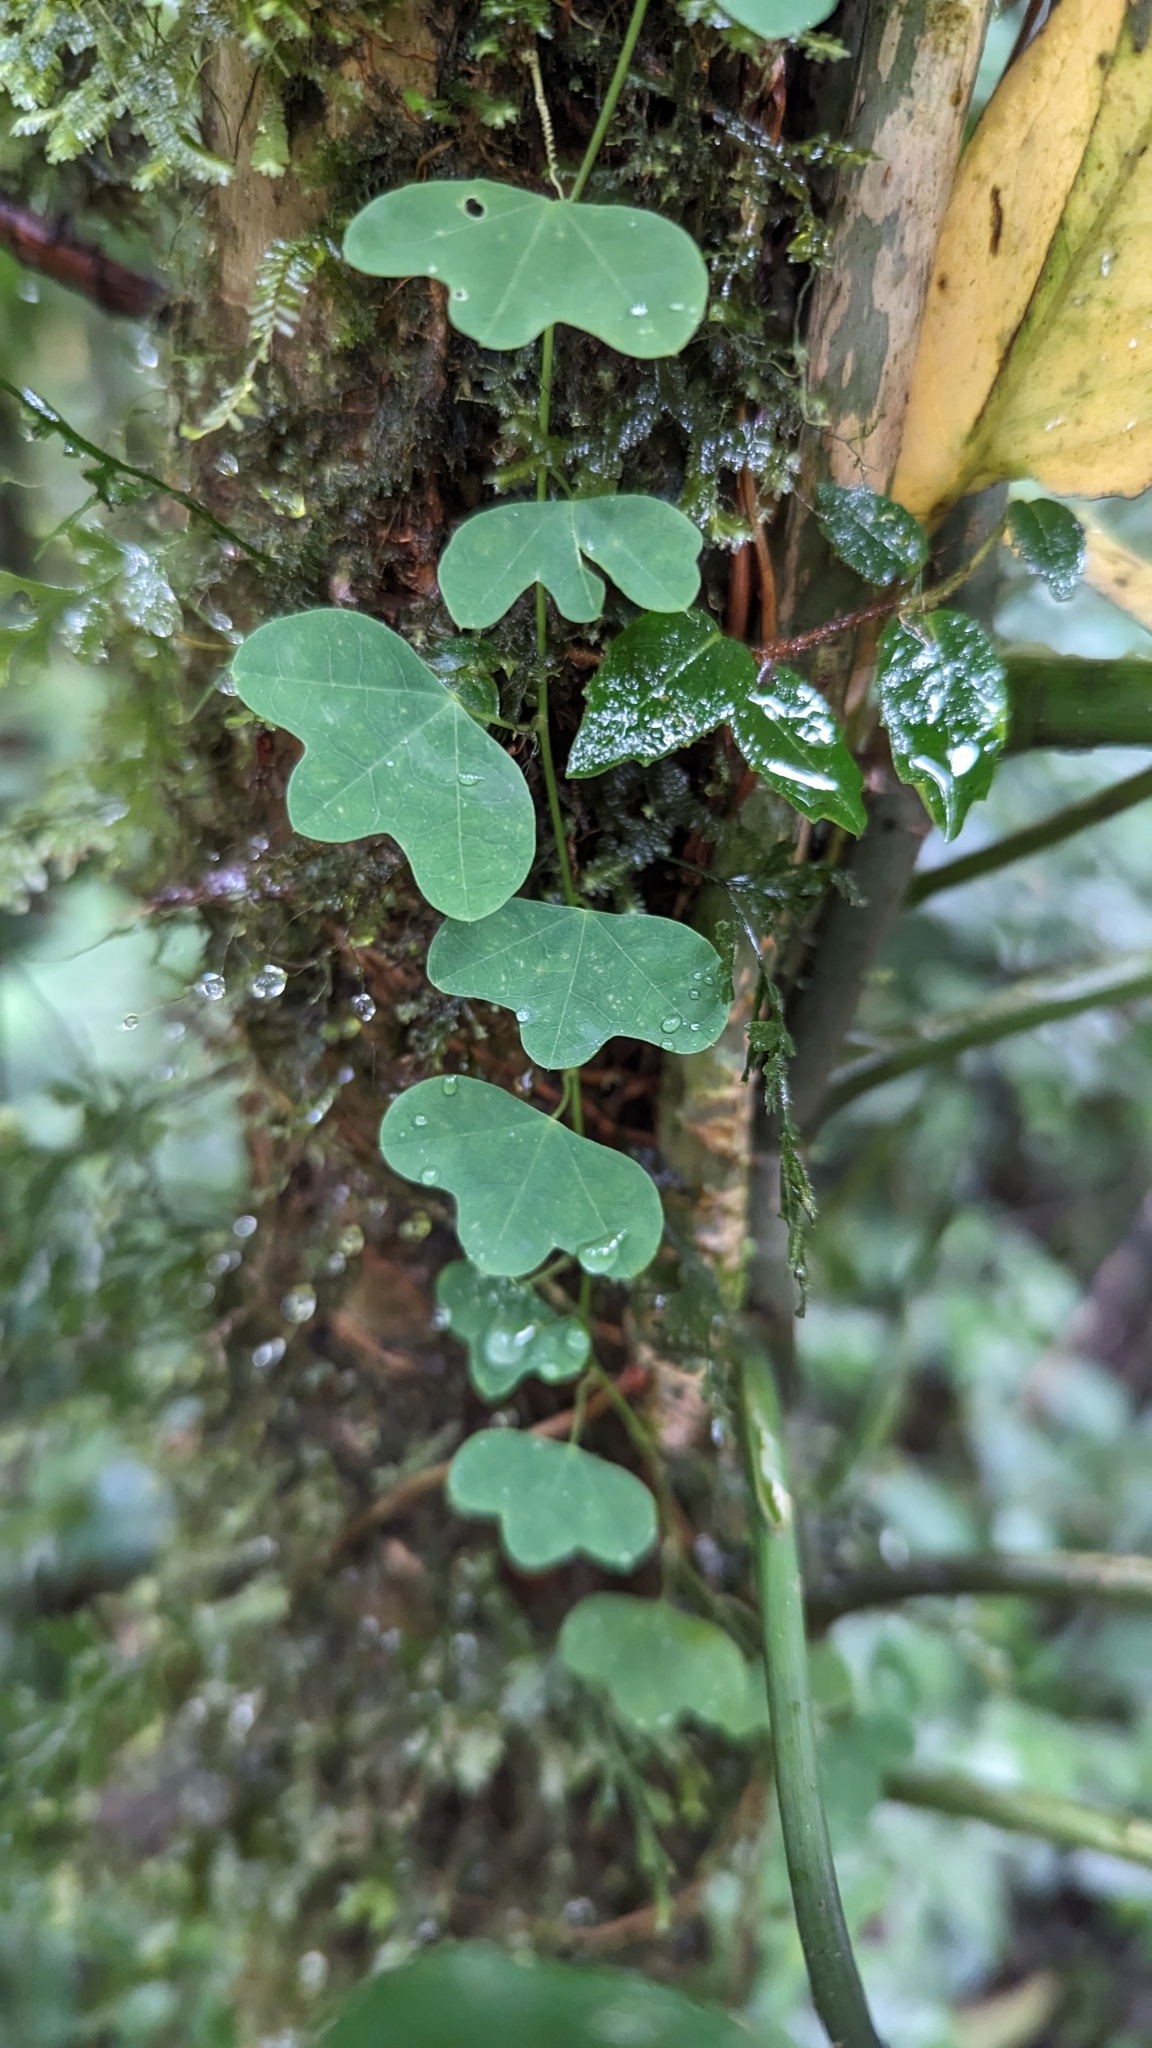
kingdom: Plantae
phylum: Tracheophyta
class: Magnoliopsida
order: Malpighiales
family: Passifloraceae
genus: Passiflora
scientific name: Passiflora lancearia
